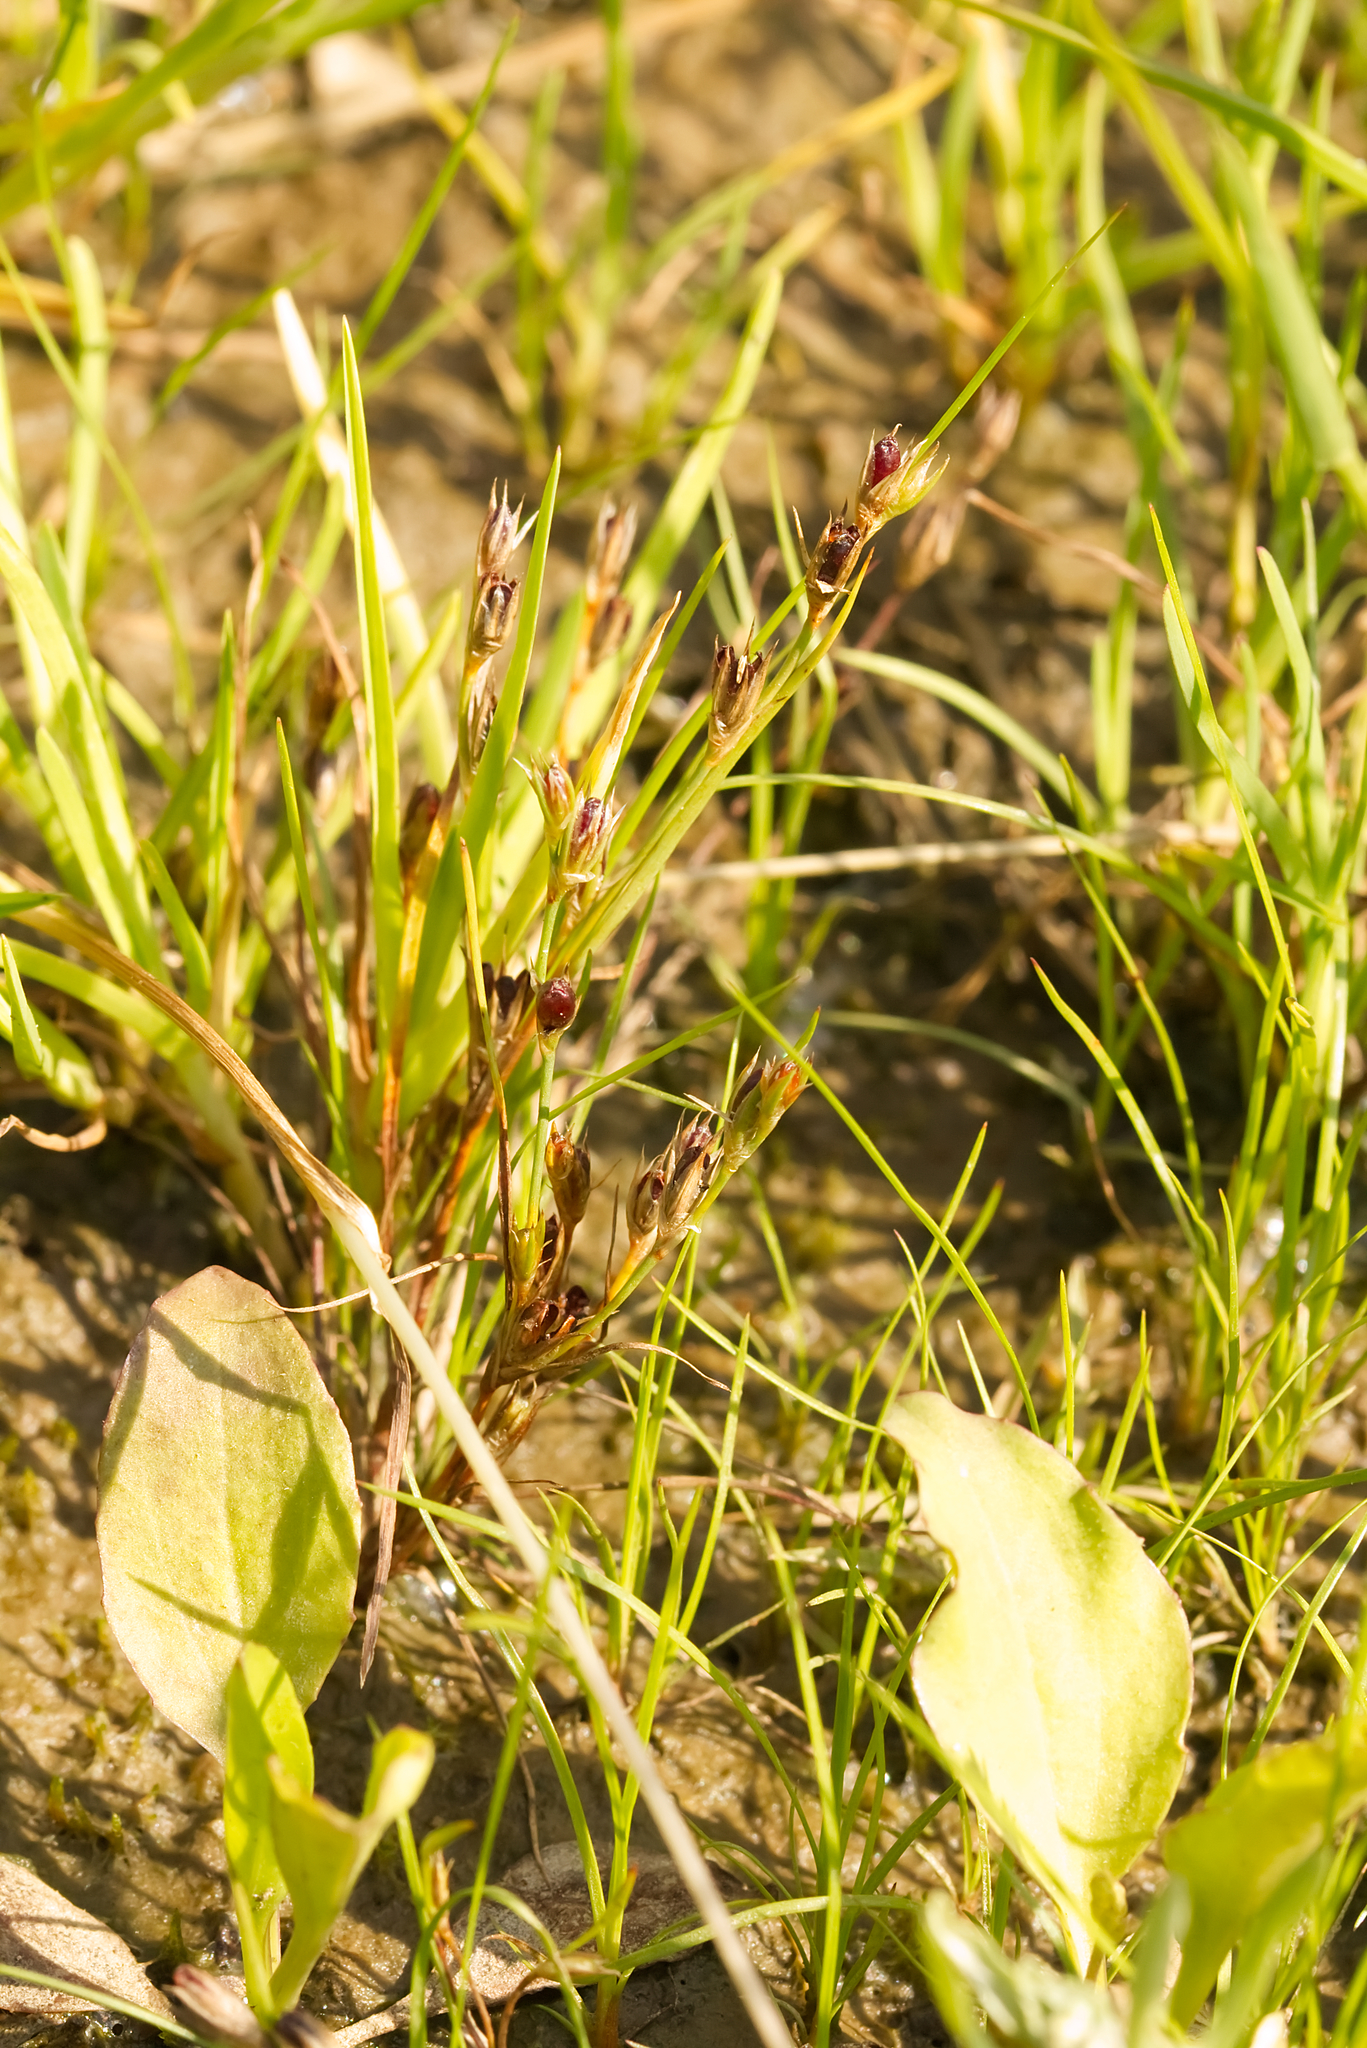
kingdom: Plantae
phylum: Tracheophyta
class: Liliopsida
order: Poales
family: Juncaceae
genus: Juncus
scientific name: Juncus bufonius
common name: Toad rush
